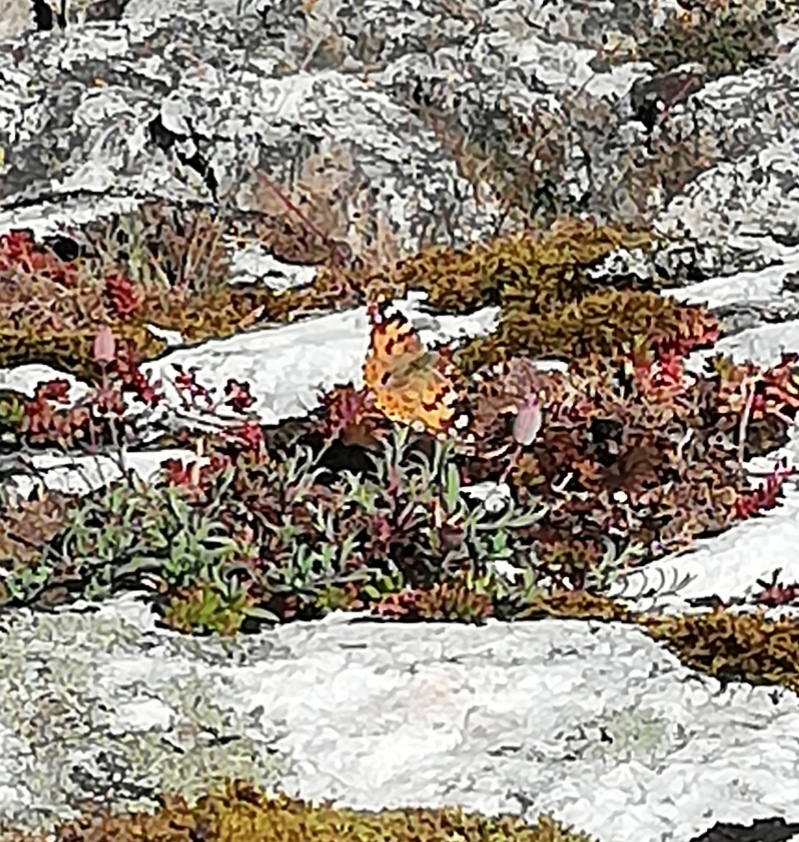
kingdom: Animalia
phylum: Arthropoda
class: Insecta
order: Lepidoptera
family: Nymphalidae
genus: Vanessa
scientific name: Vanessa cardui
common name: Painted lady
